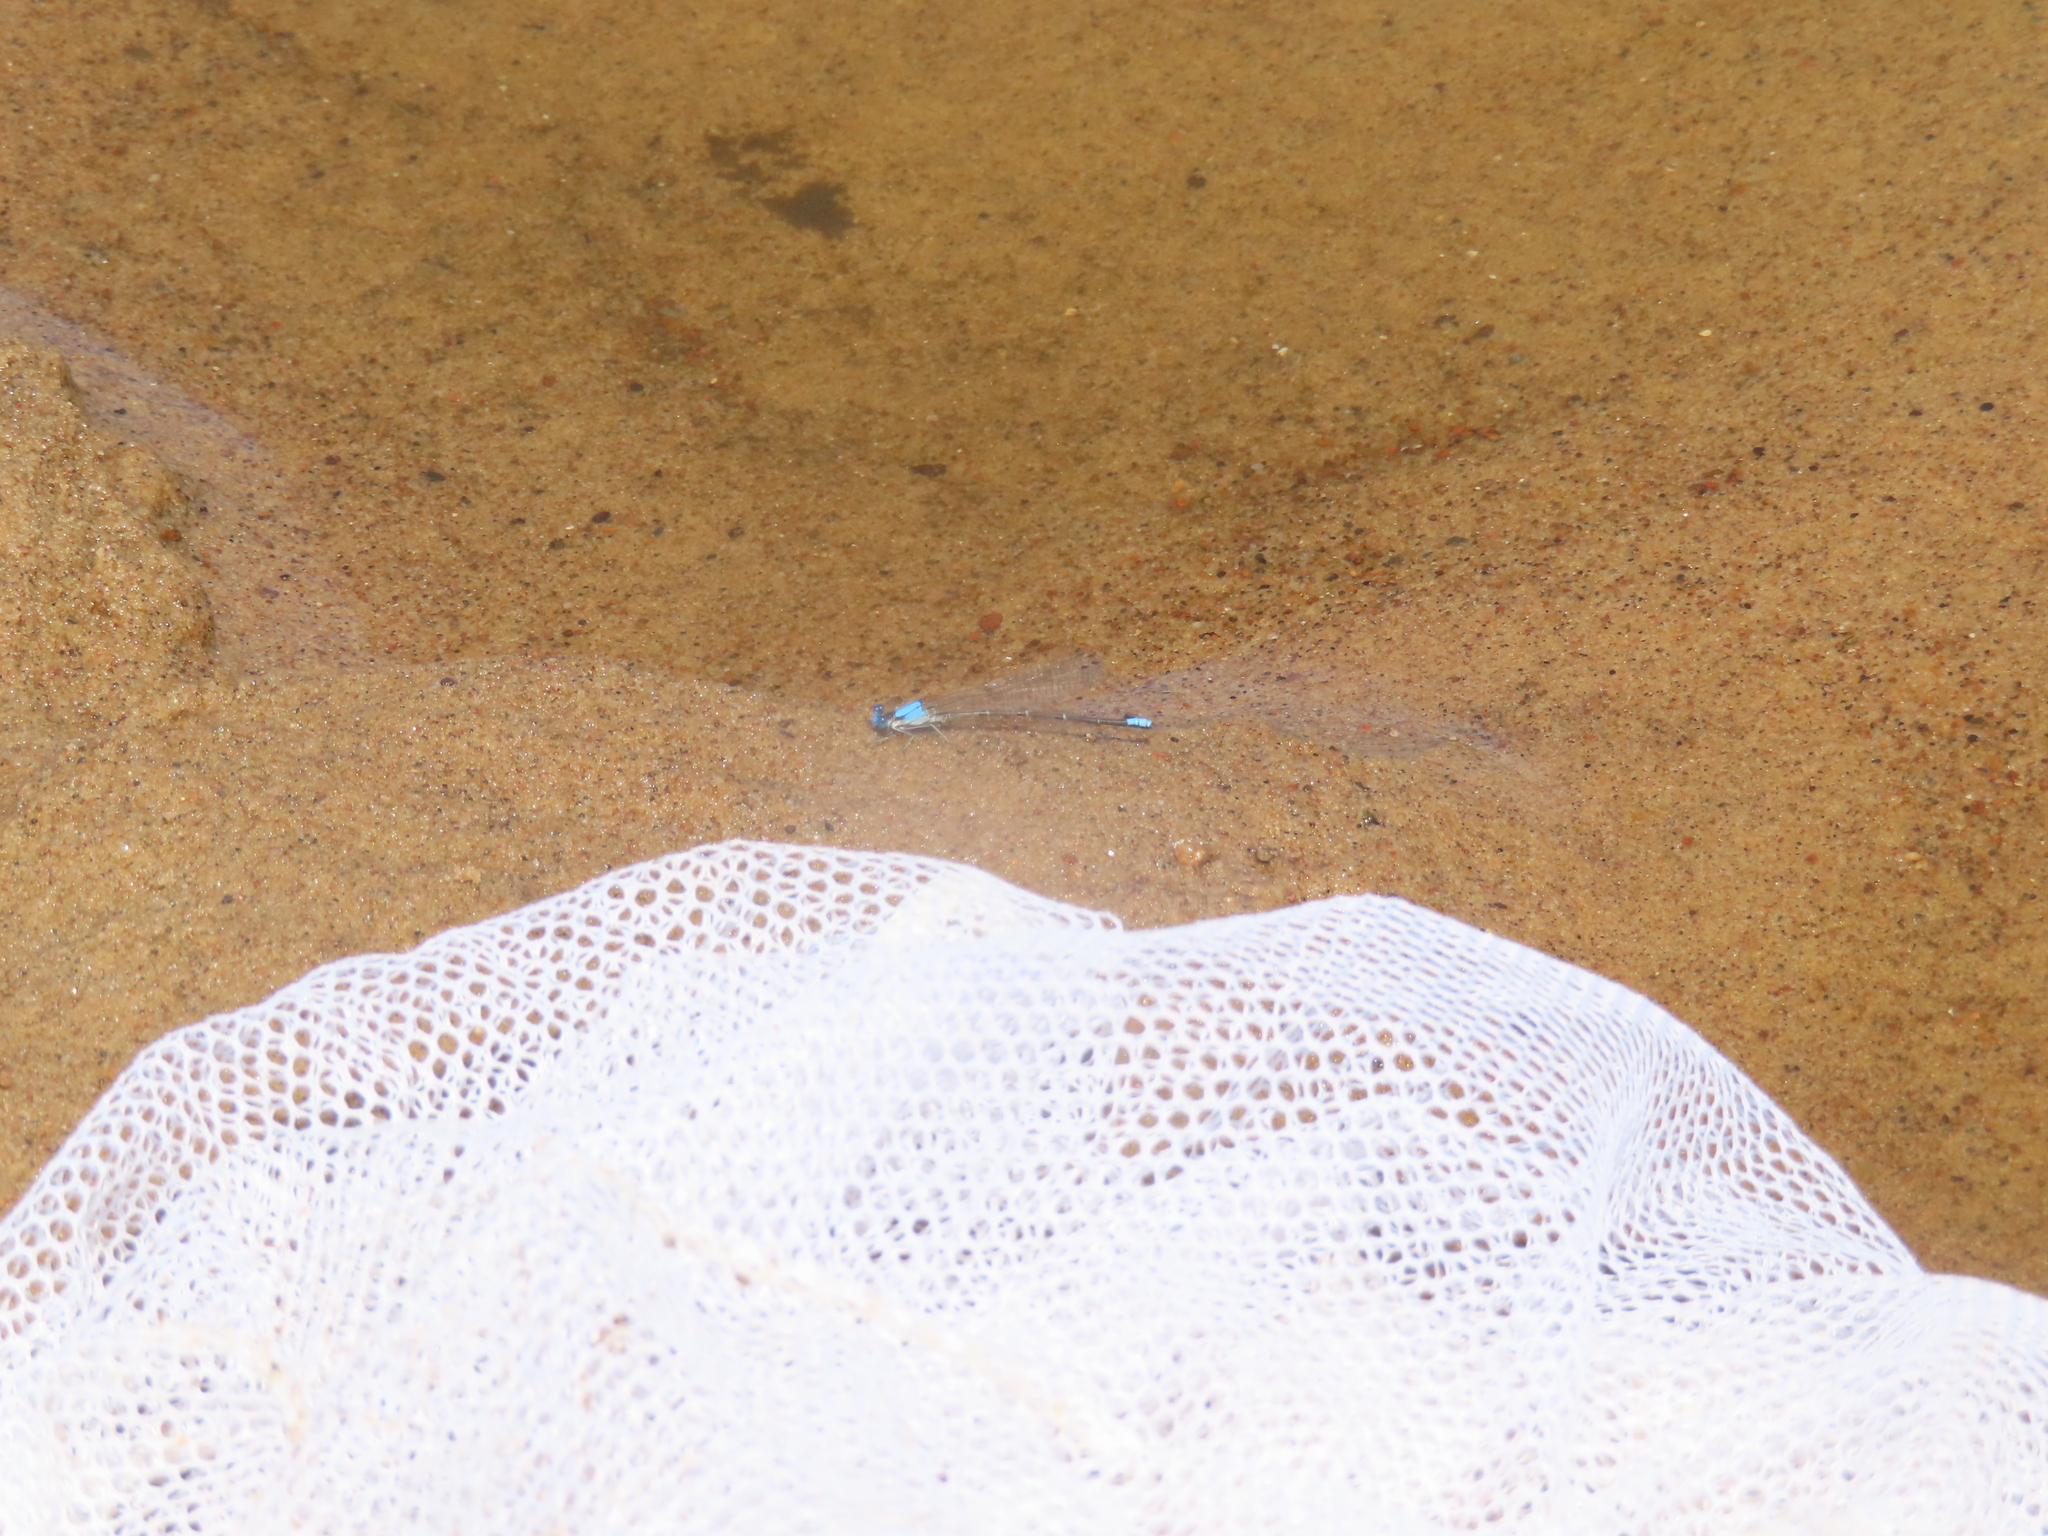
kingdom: Animalia
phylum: Arthropoda
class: Insecta
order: Odonata
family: Coenagrionidae
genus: Argia
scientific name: Argia apicalis
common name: Blue-fronted dancer
